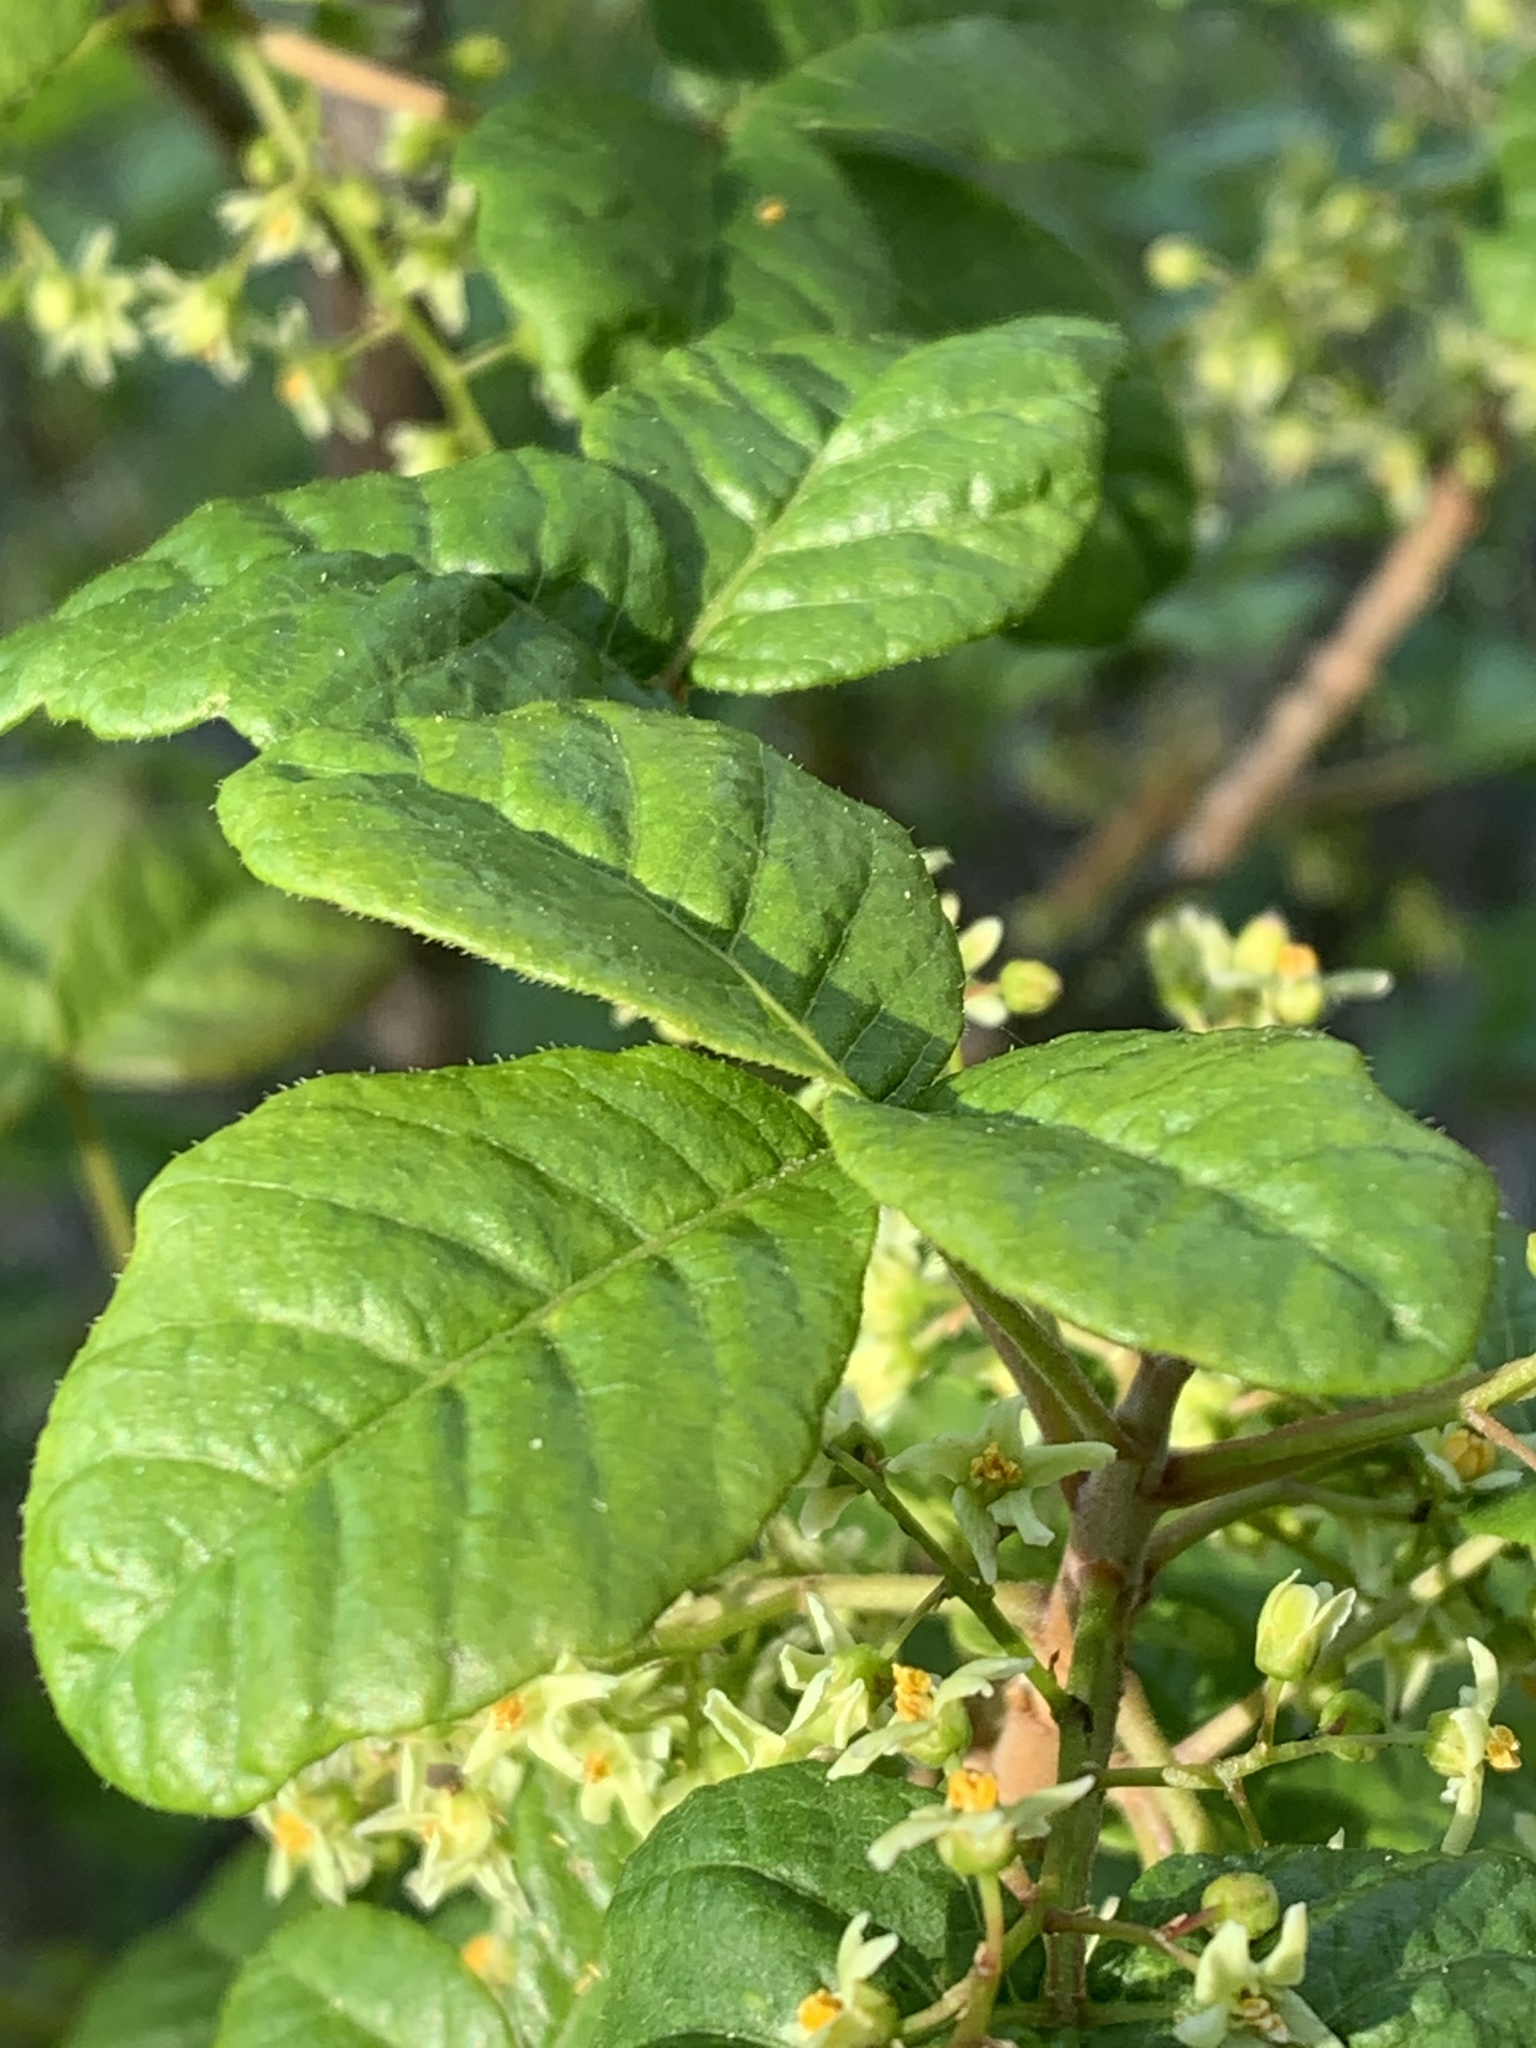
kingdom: Plantae
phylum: Tracheophyta
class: Magnoliopsida
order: Sapindales
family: Anacardiaceae
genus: Toxicodendron
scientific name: Toxicodendron diversilobum
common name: Pacific poison-oak
